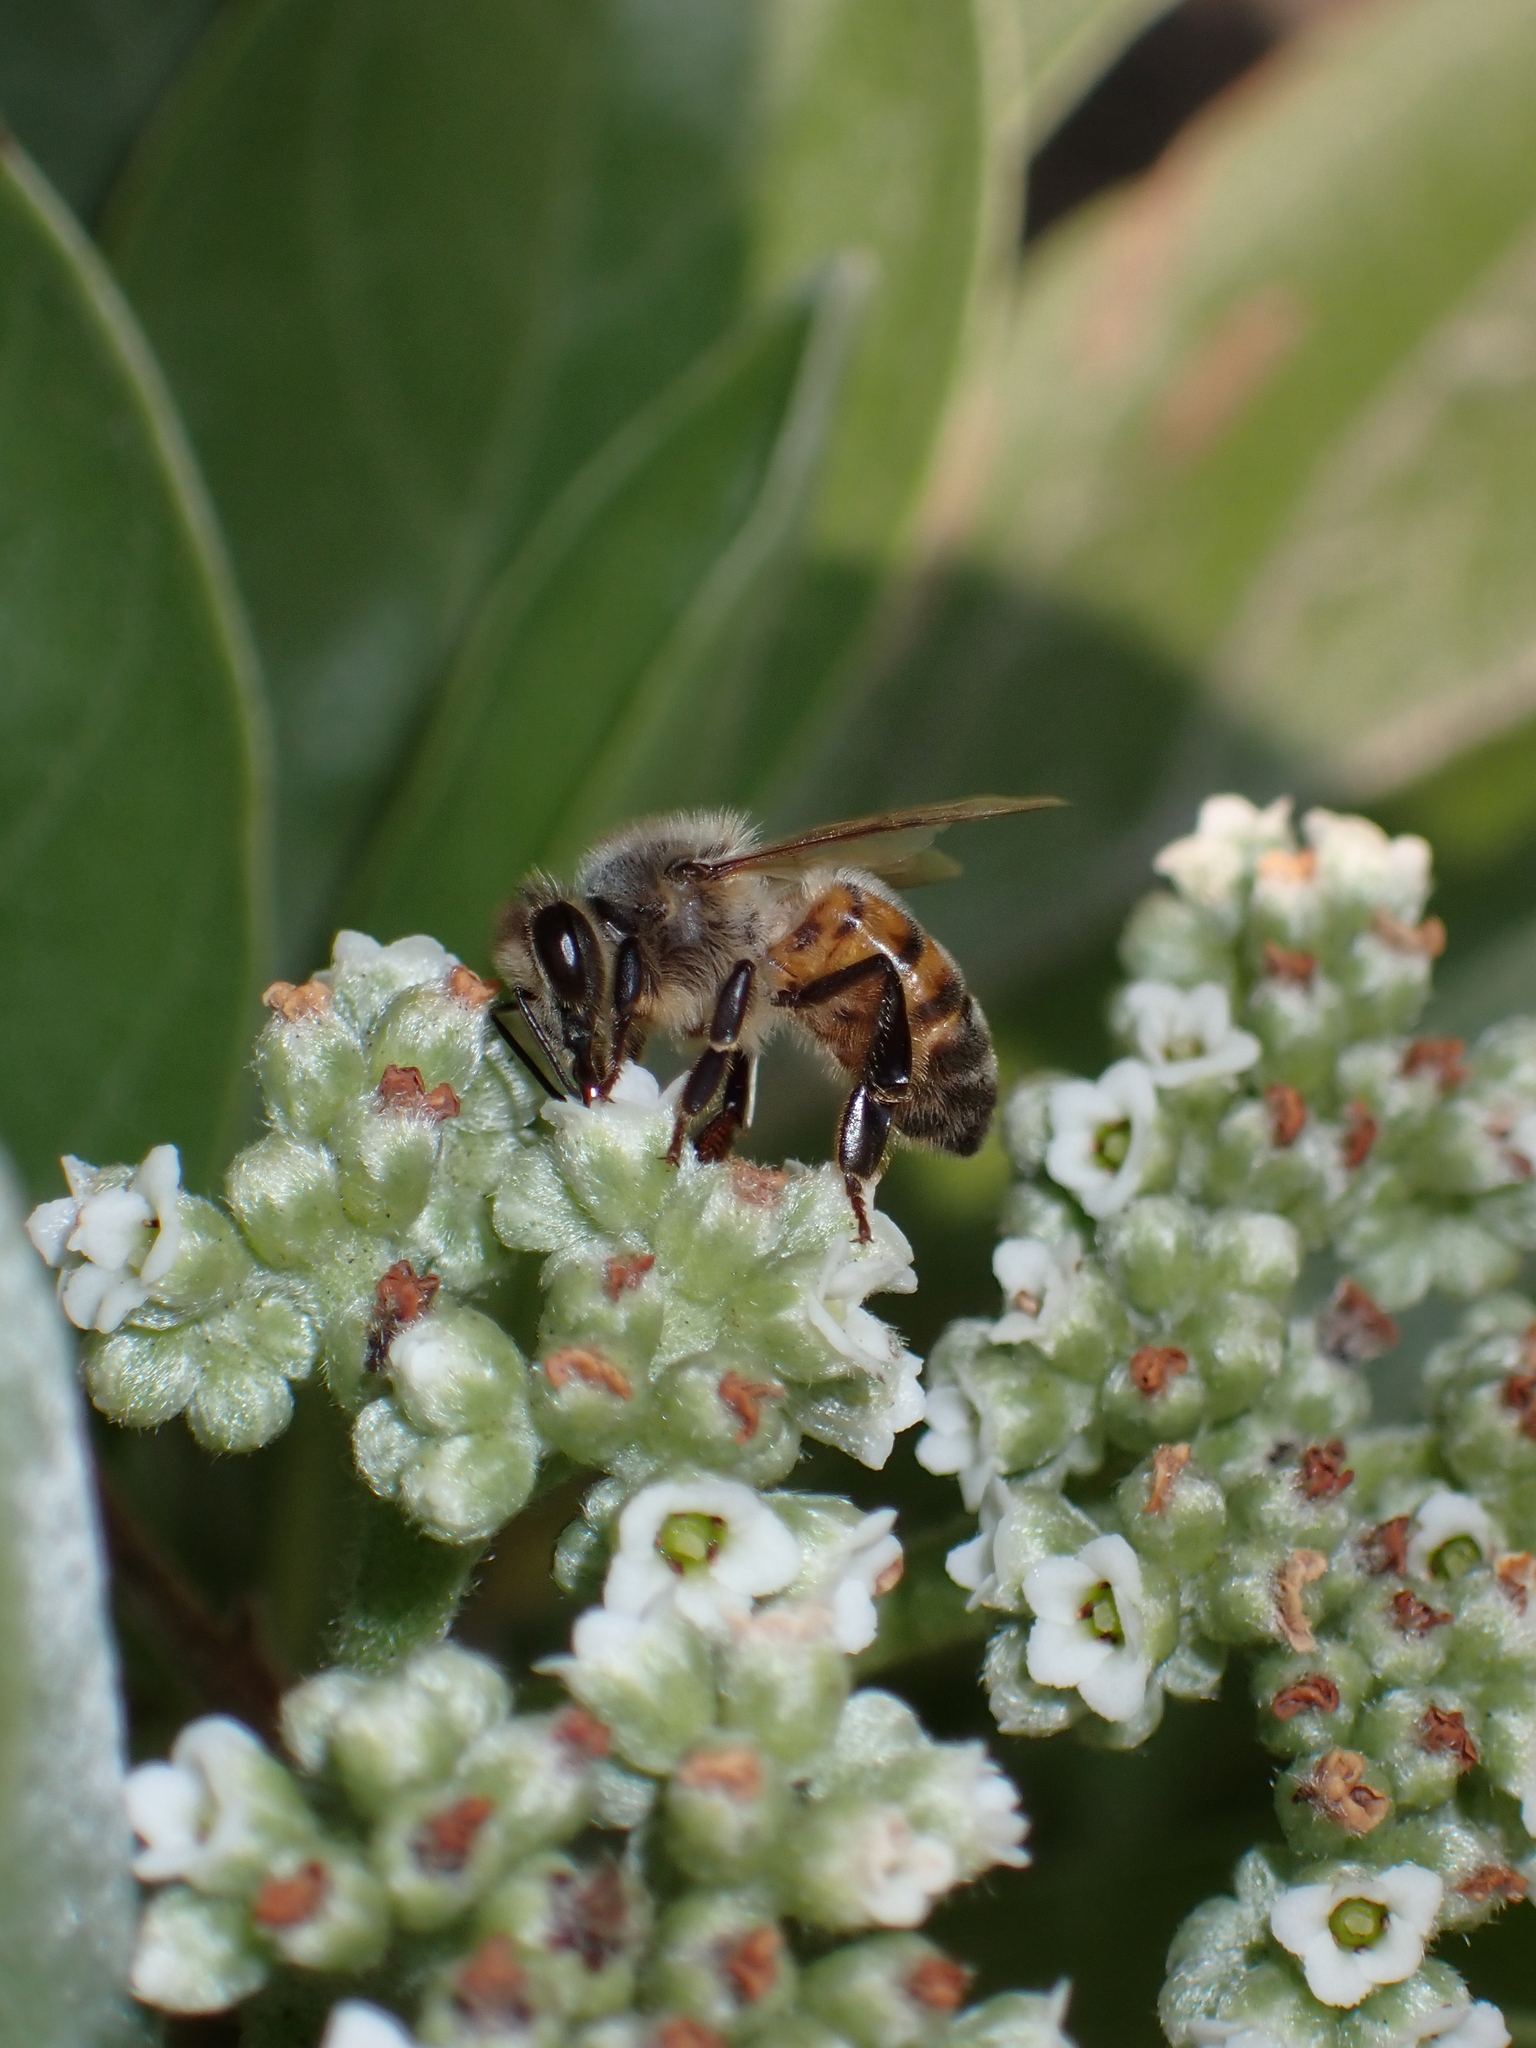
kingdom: Animalia
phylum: Arthropoda
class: Insecta
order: Hymenoptera
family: Apidae
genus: Apis
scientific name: Apis mellifera
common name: Honey bee
